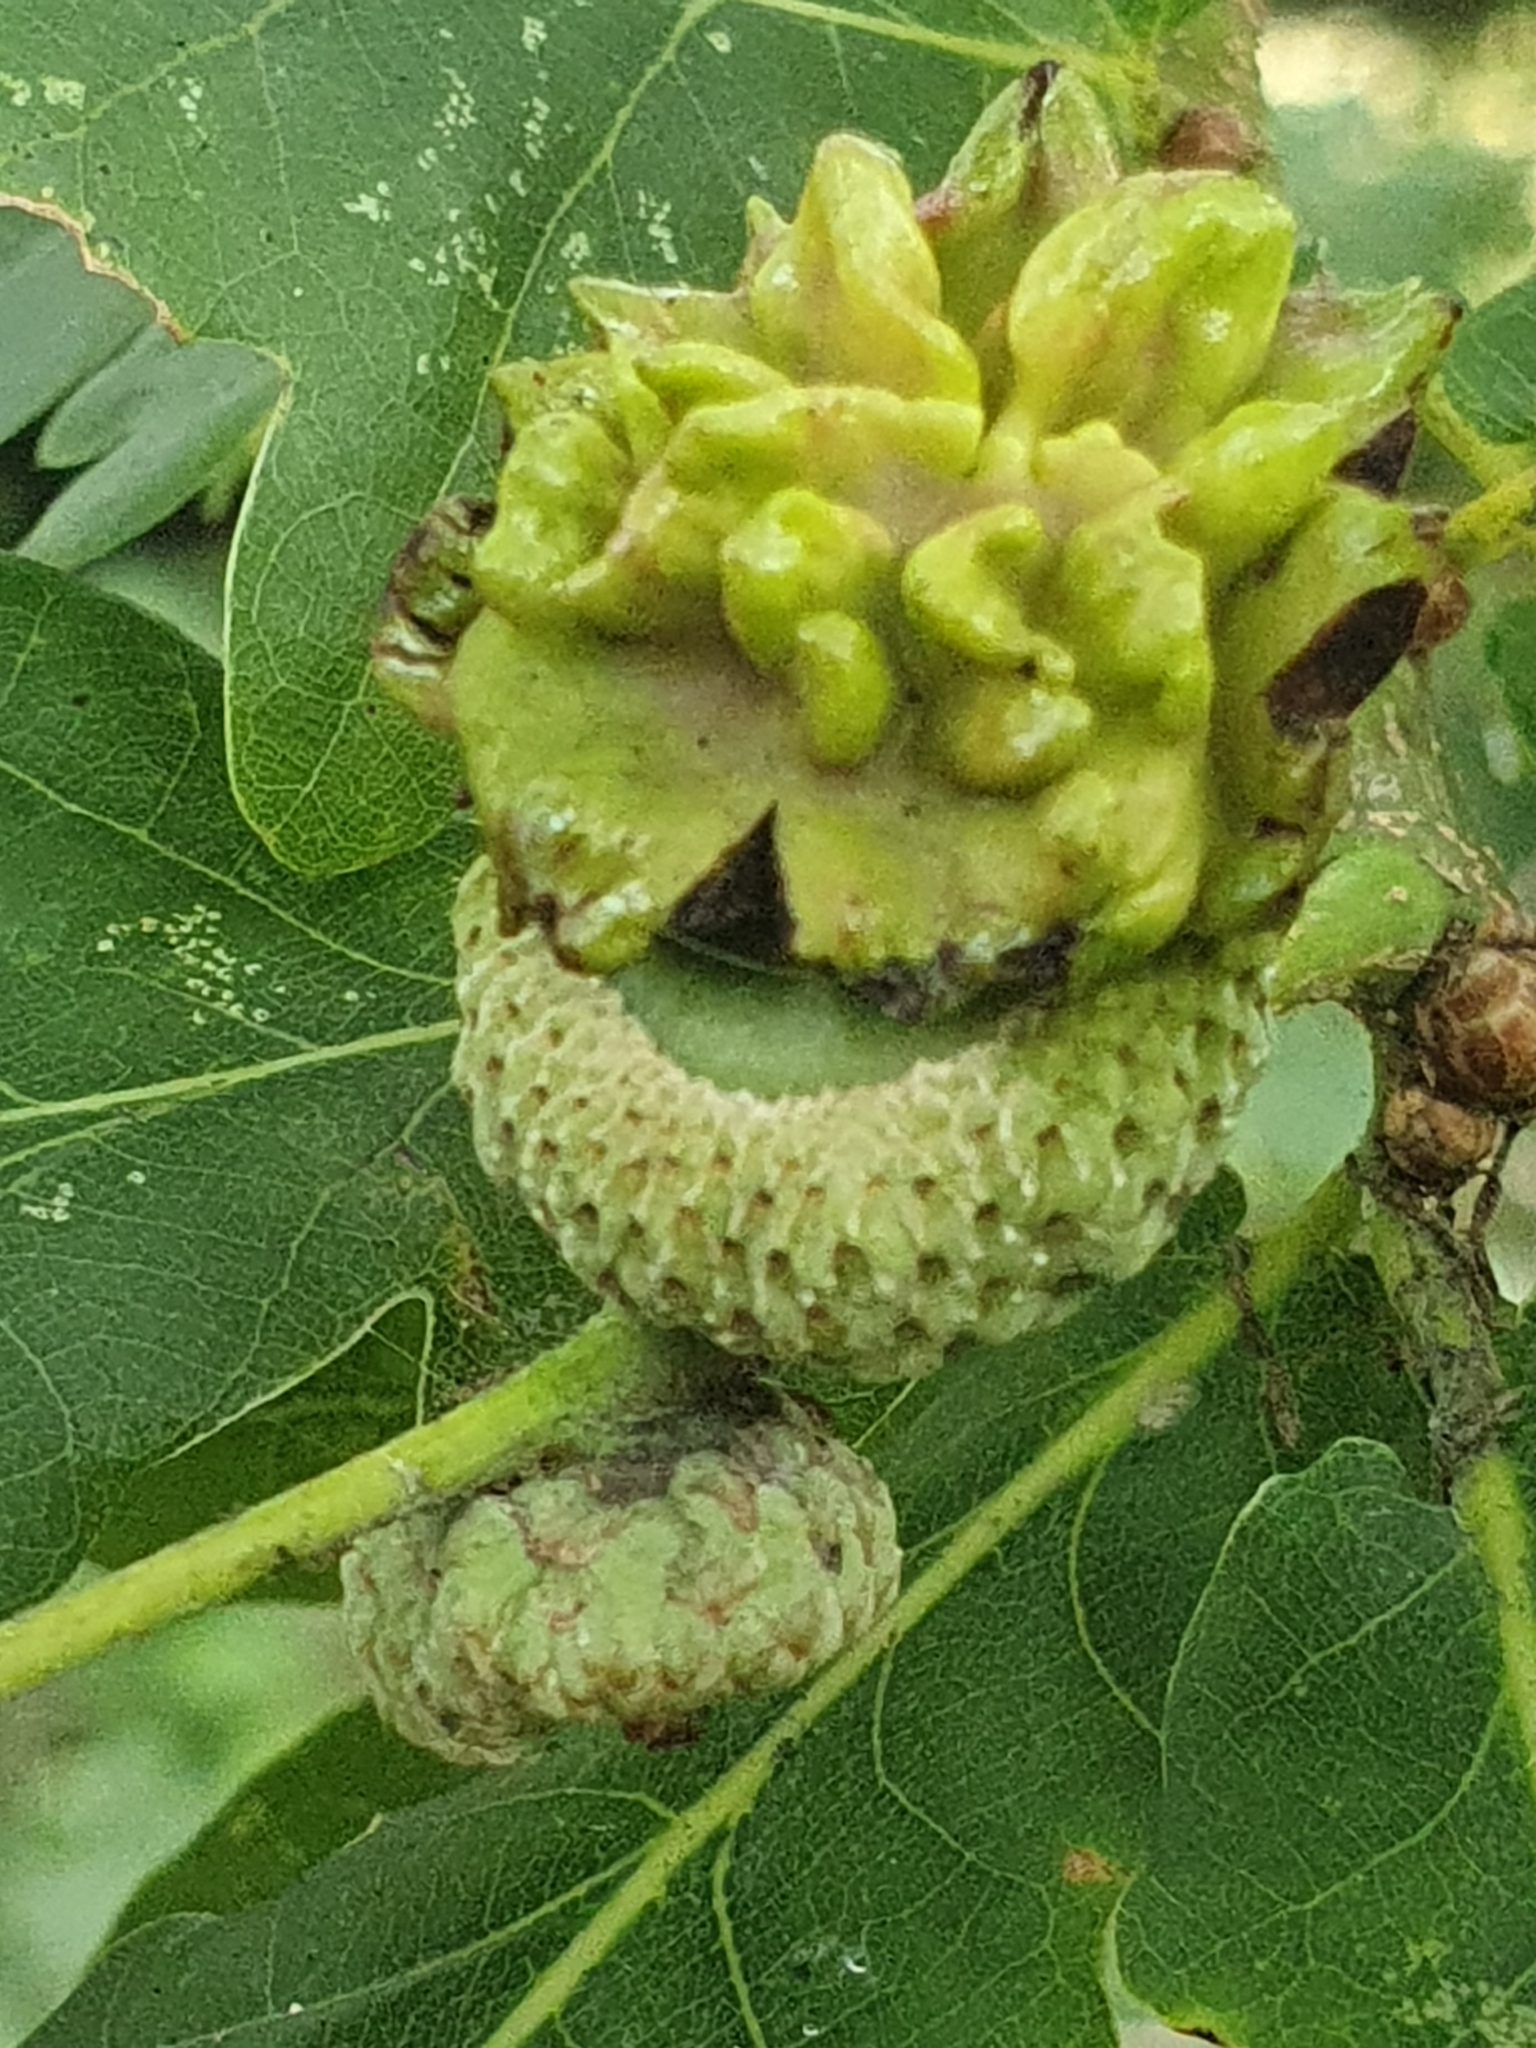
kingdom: Animalia
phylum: Arthropoda
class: Insecta
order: Hymenoptera
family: Cynipidae
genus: Andricus
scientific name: Andricus quercuscalicis
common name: Knopper gall
